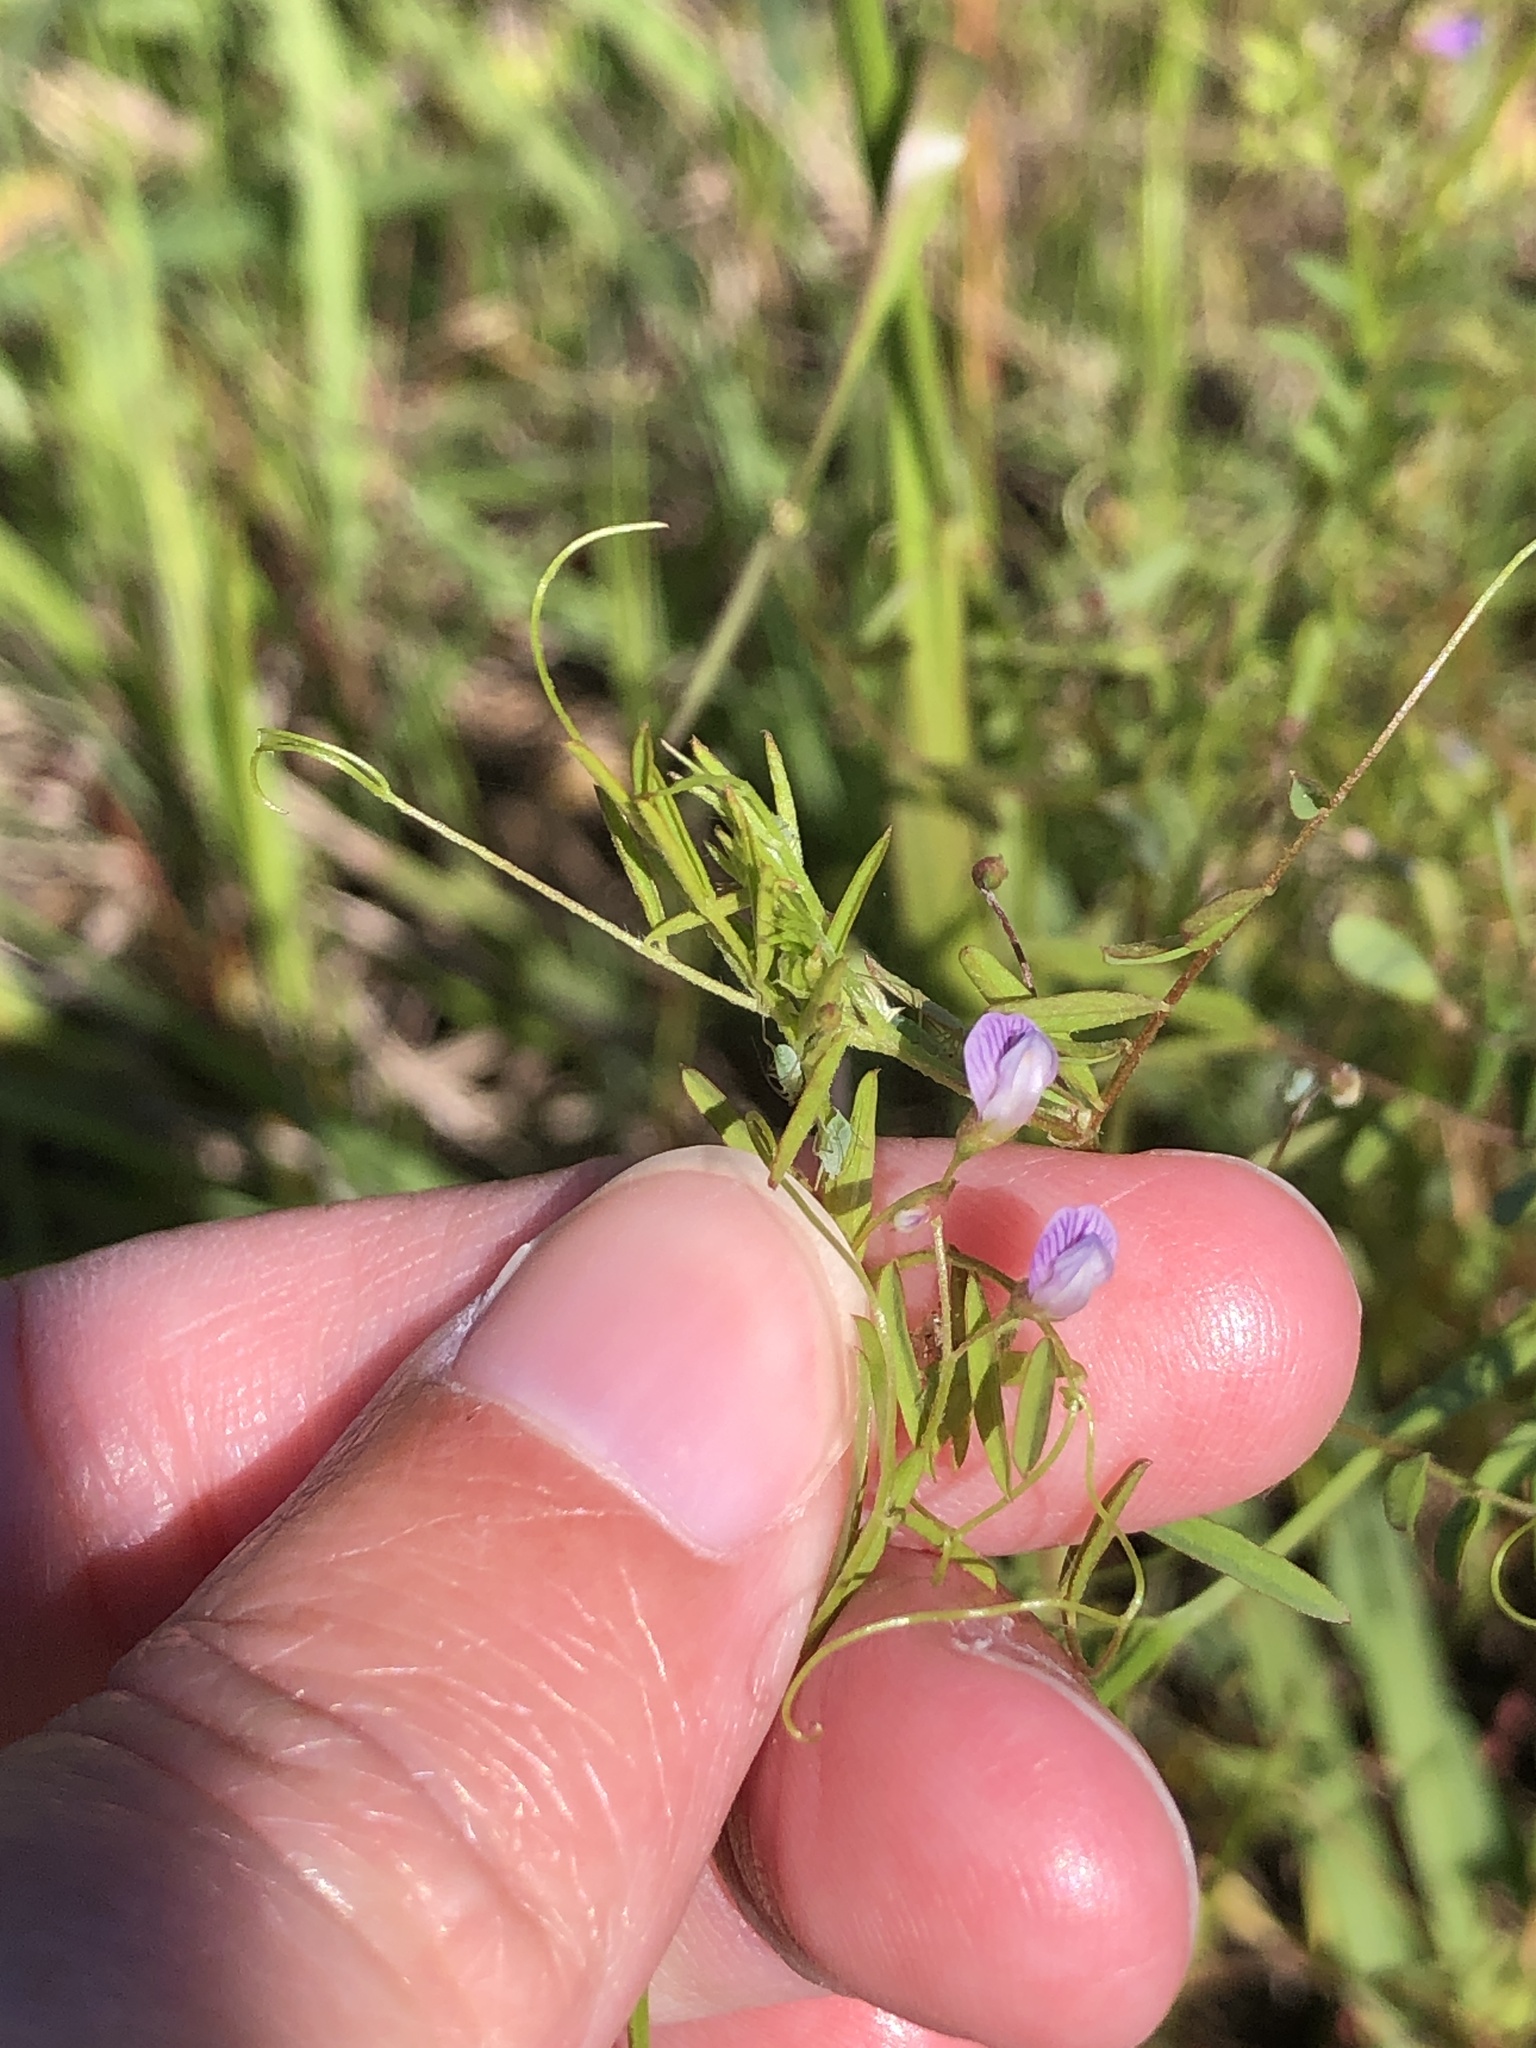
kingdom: Plantae
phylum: Tracheophyta
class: Magnoliopsida
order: Fabales
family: Fabaceae
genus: Vicia
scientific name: Vicia tetrasperma
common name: Smooth tare
